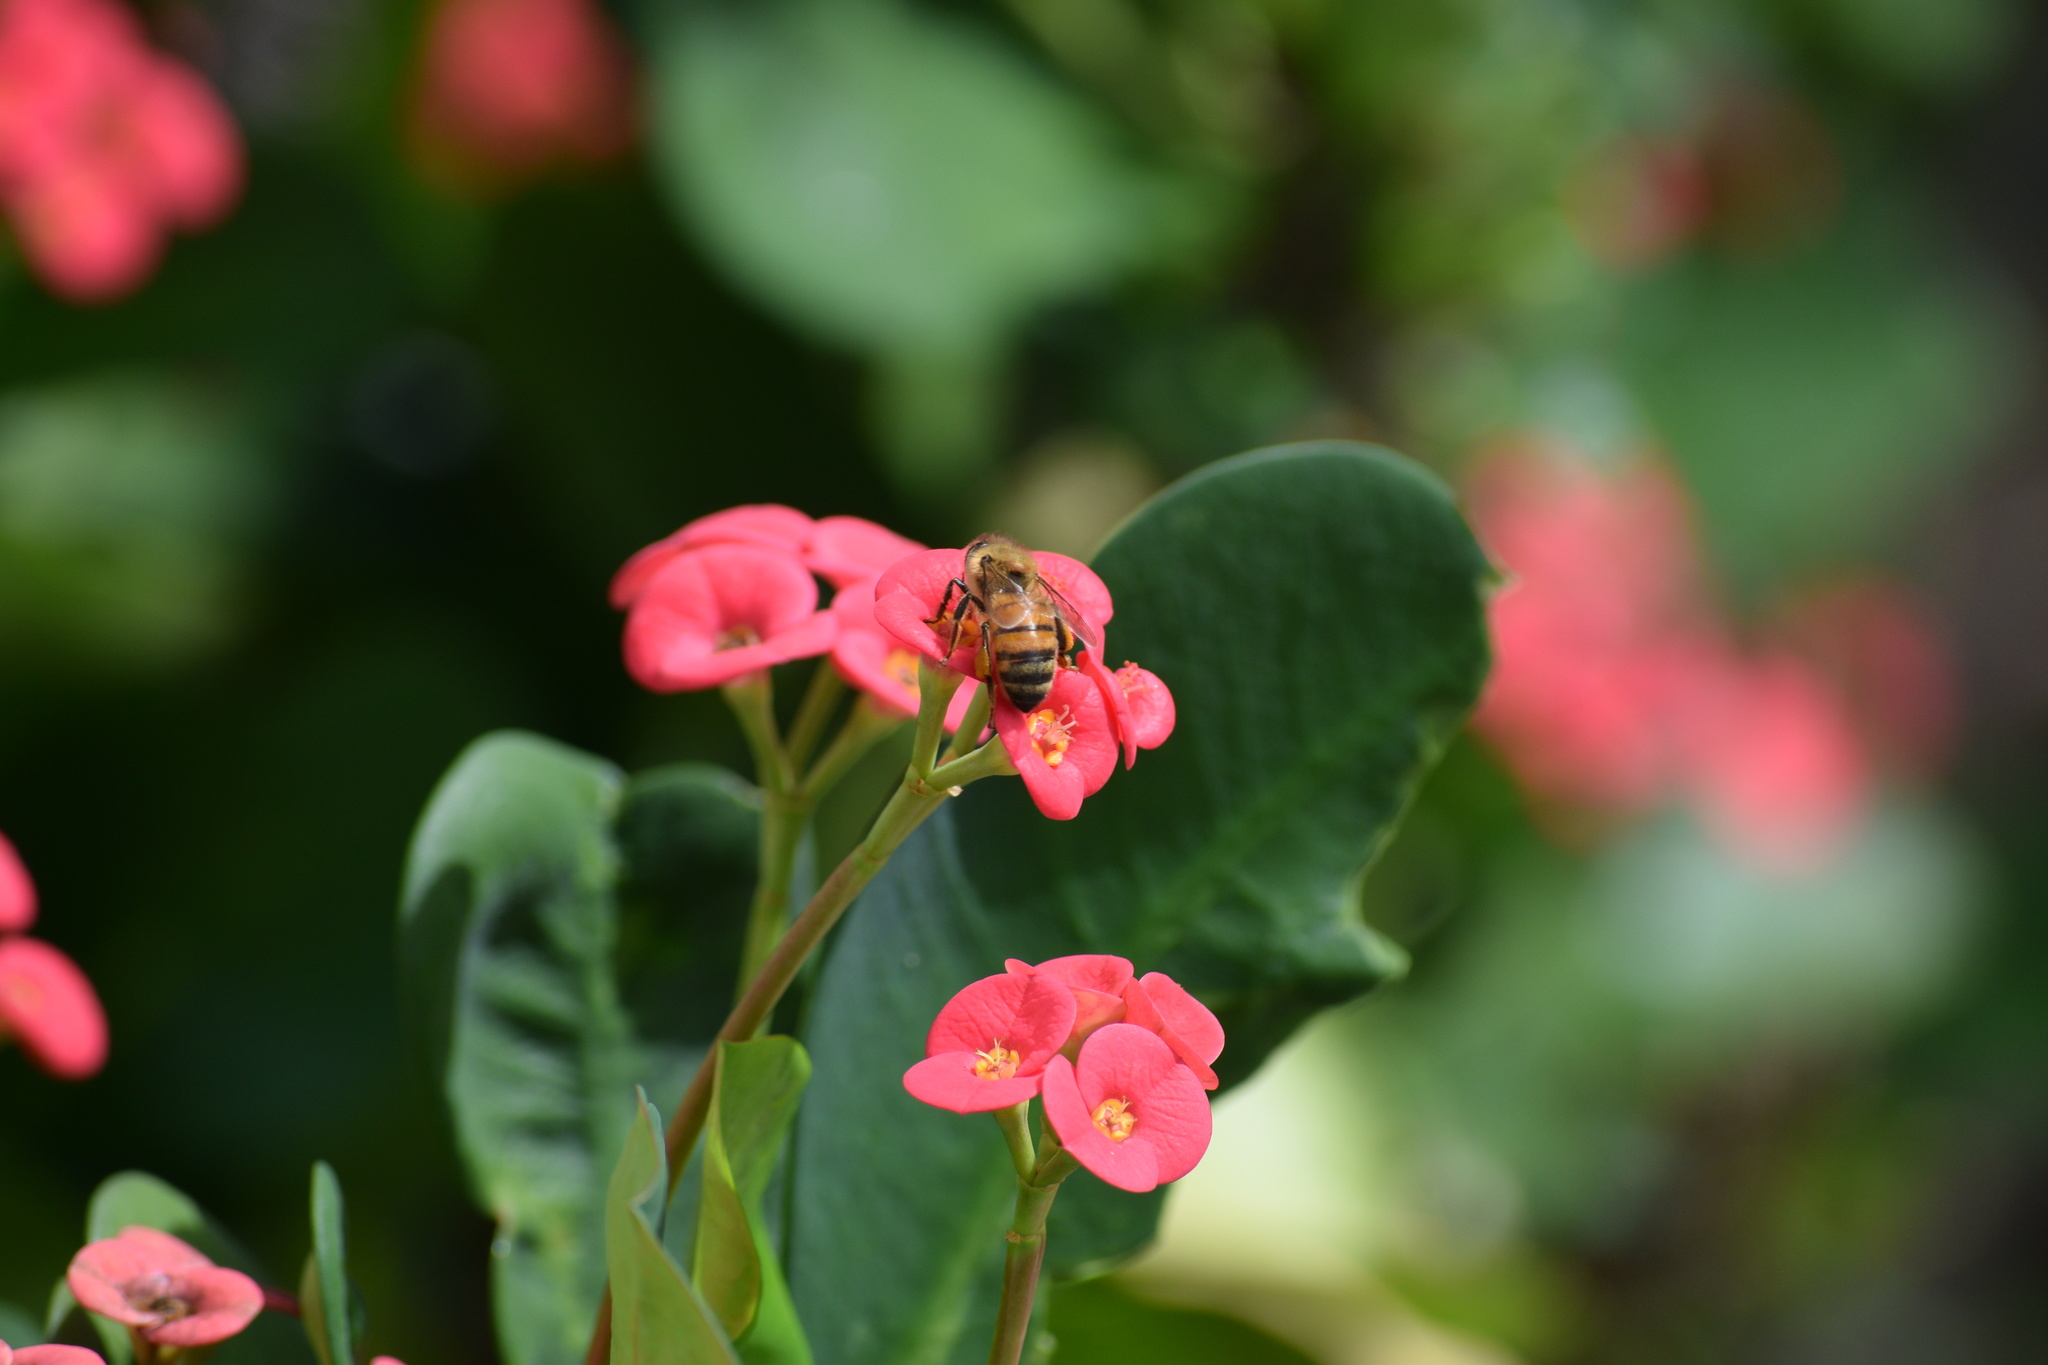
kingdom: Animalia
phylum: Arthropoda
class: Insecta
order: Hymenoptera
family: Apidae
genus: Apis
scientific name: Apis mellifera
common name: Honey bee
